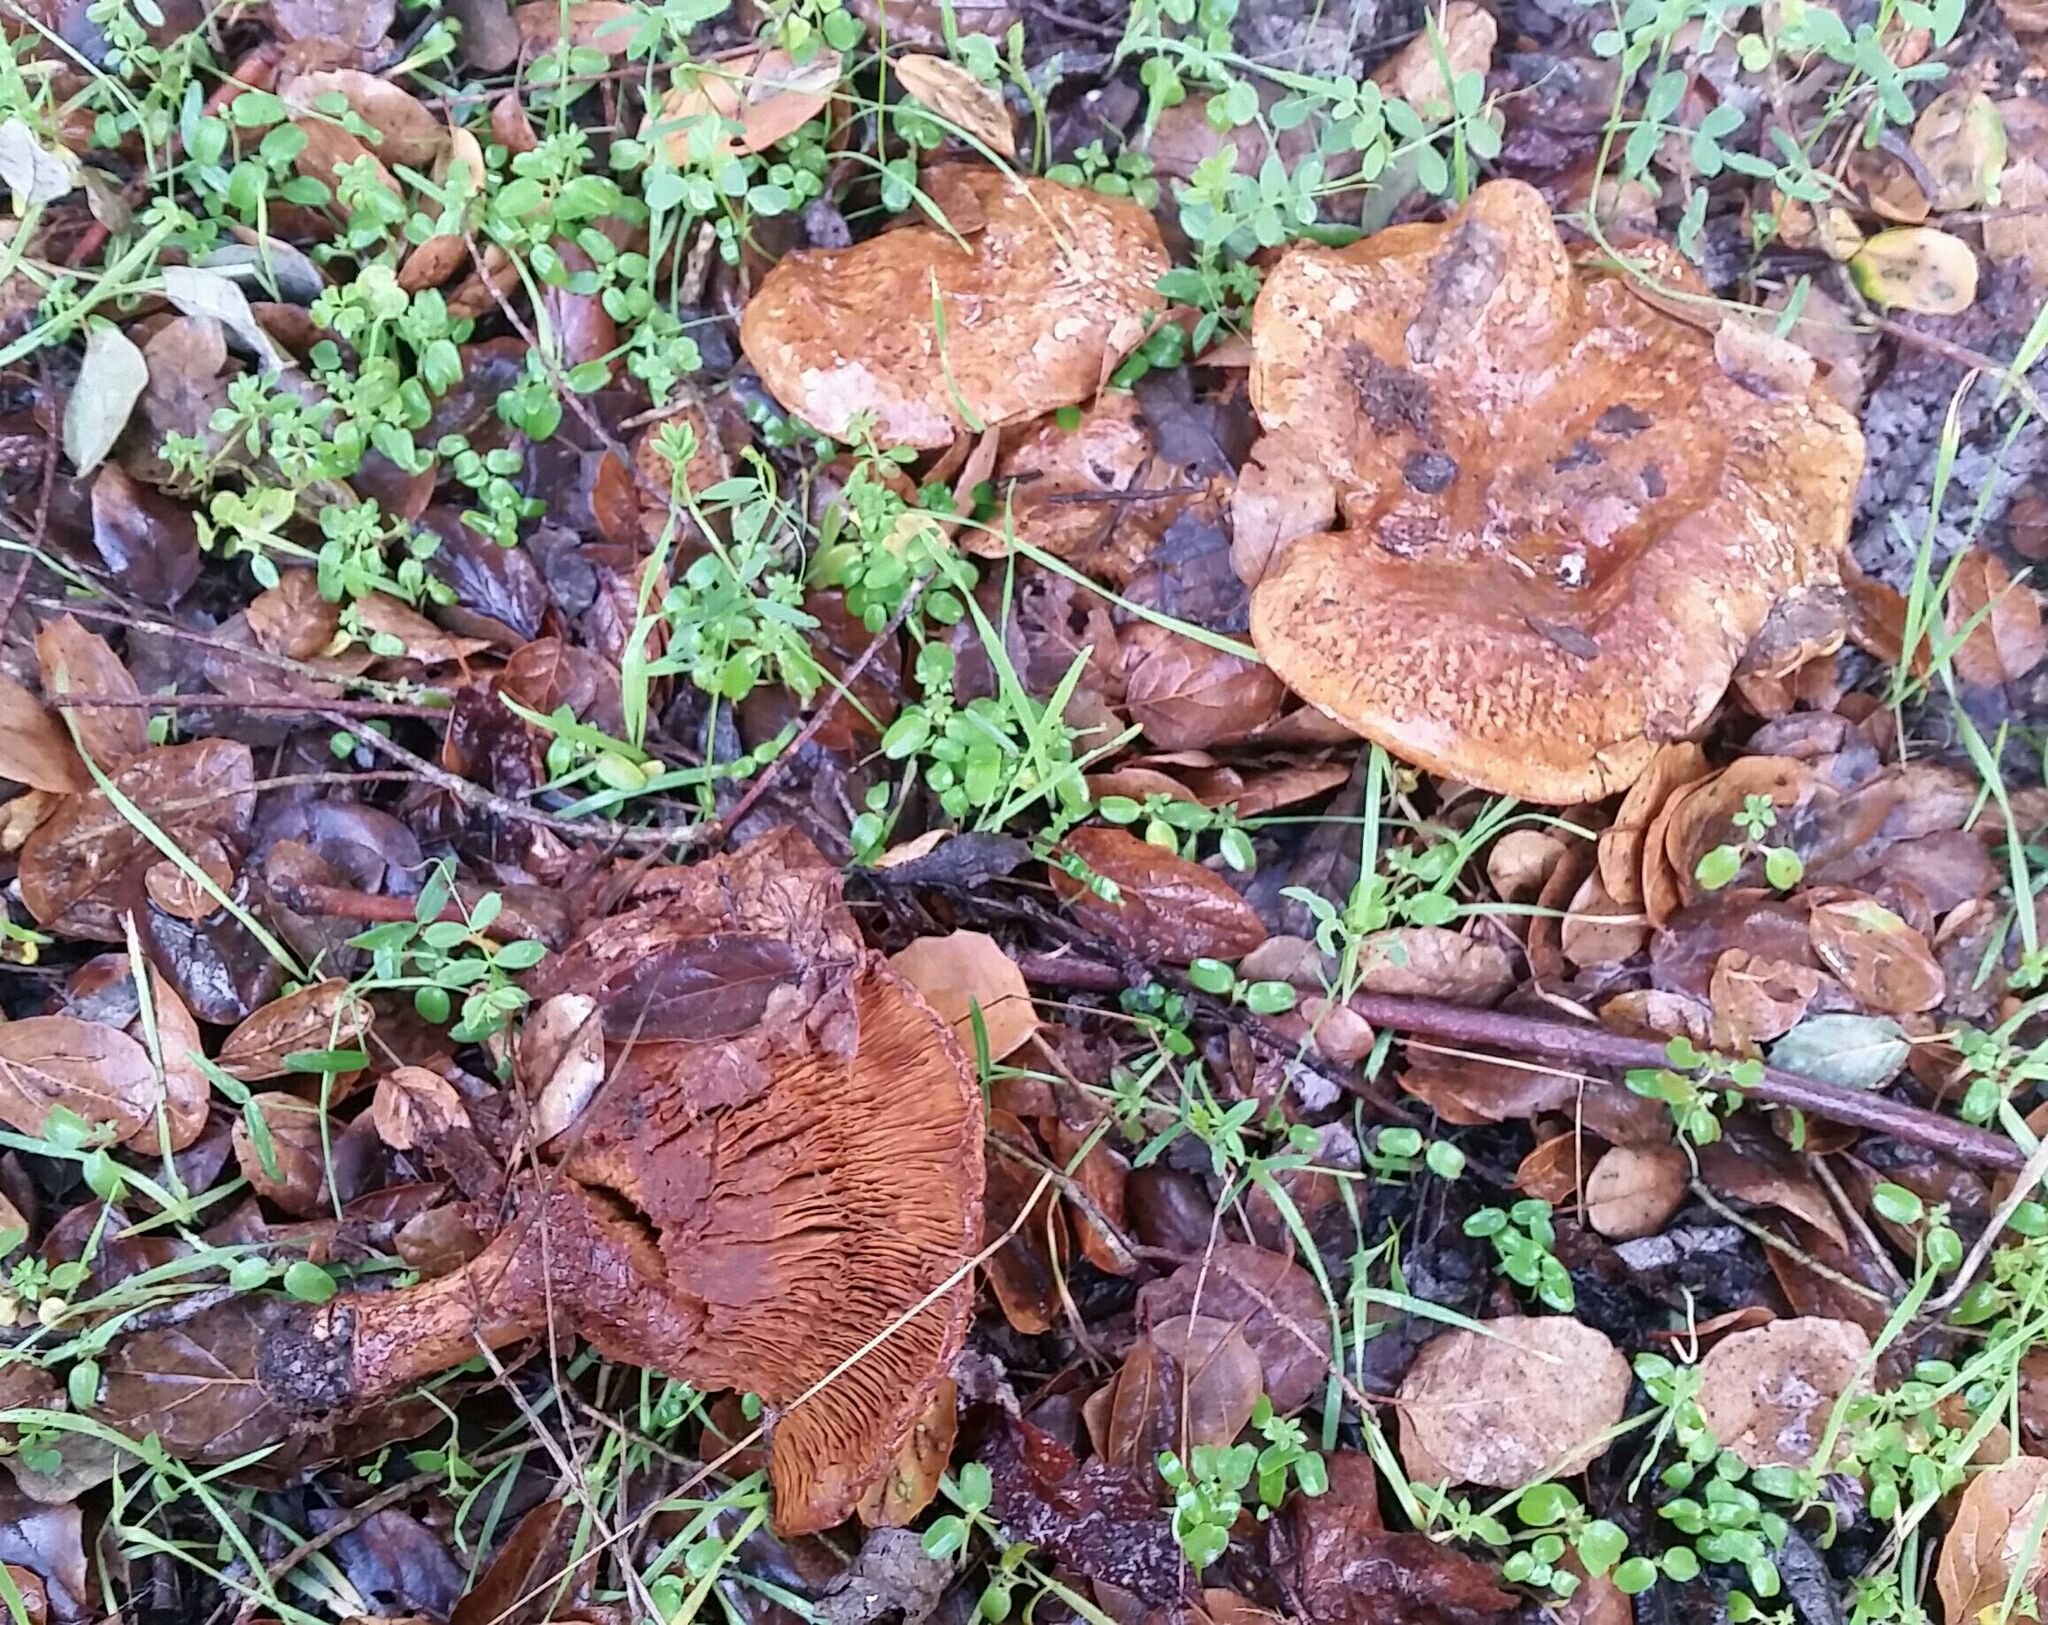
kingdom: Fungi
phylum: Basidiomycota
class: Agaricomycetes
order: Agaricales
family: Tricholomataceae
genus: Melanoleuca
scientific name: Melanoleuca dryophila
